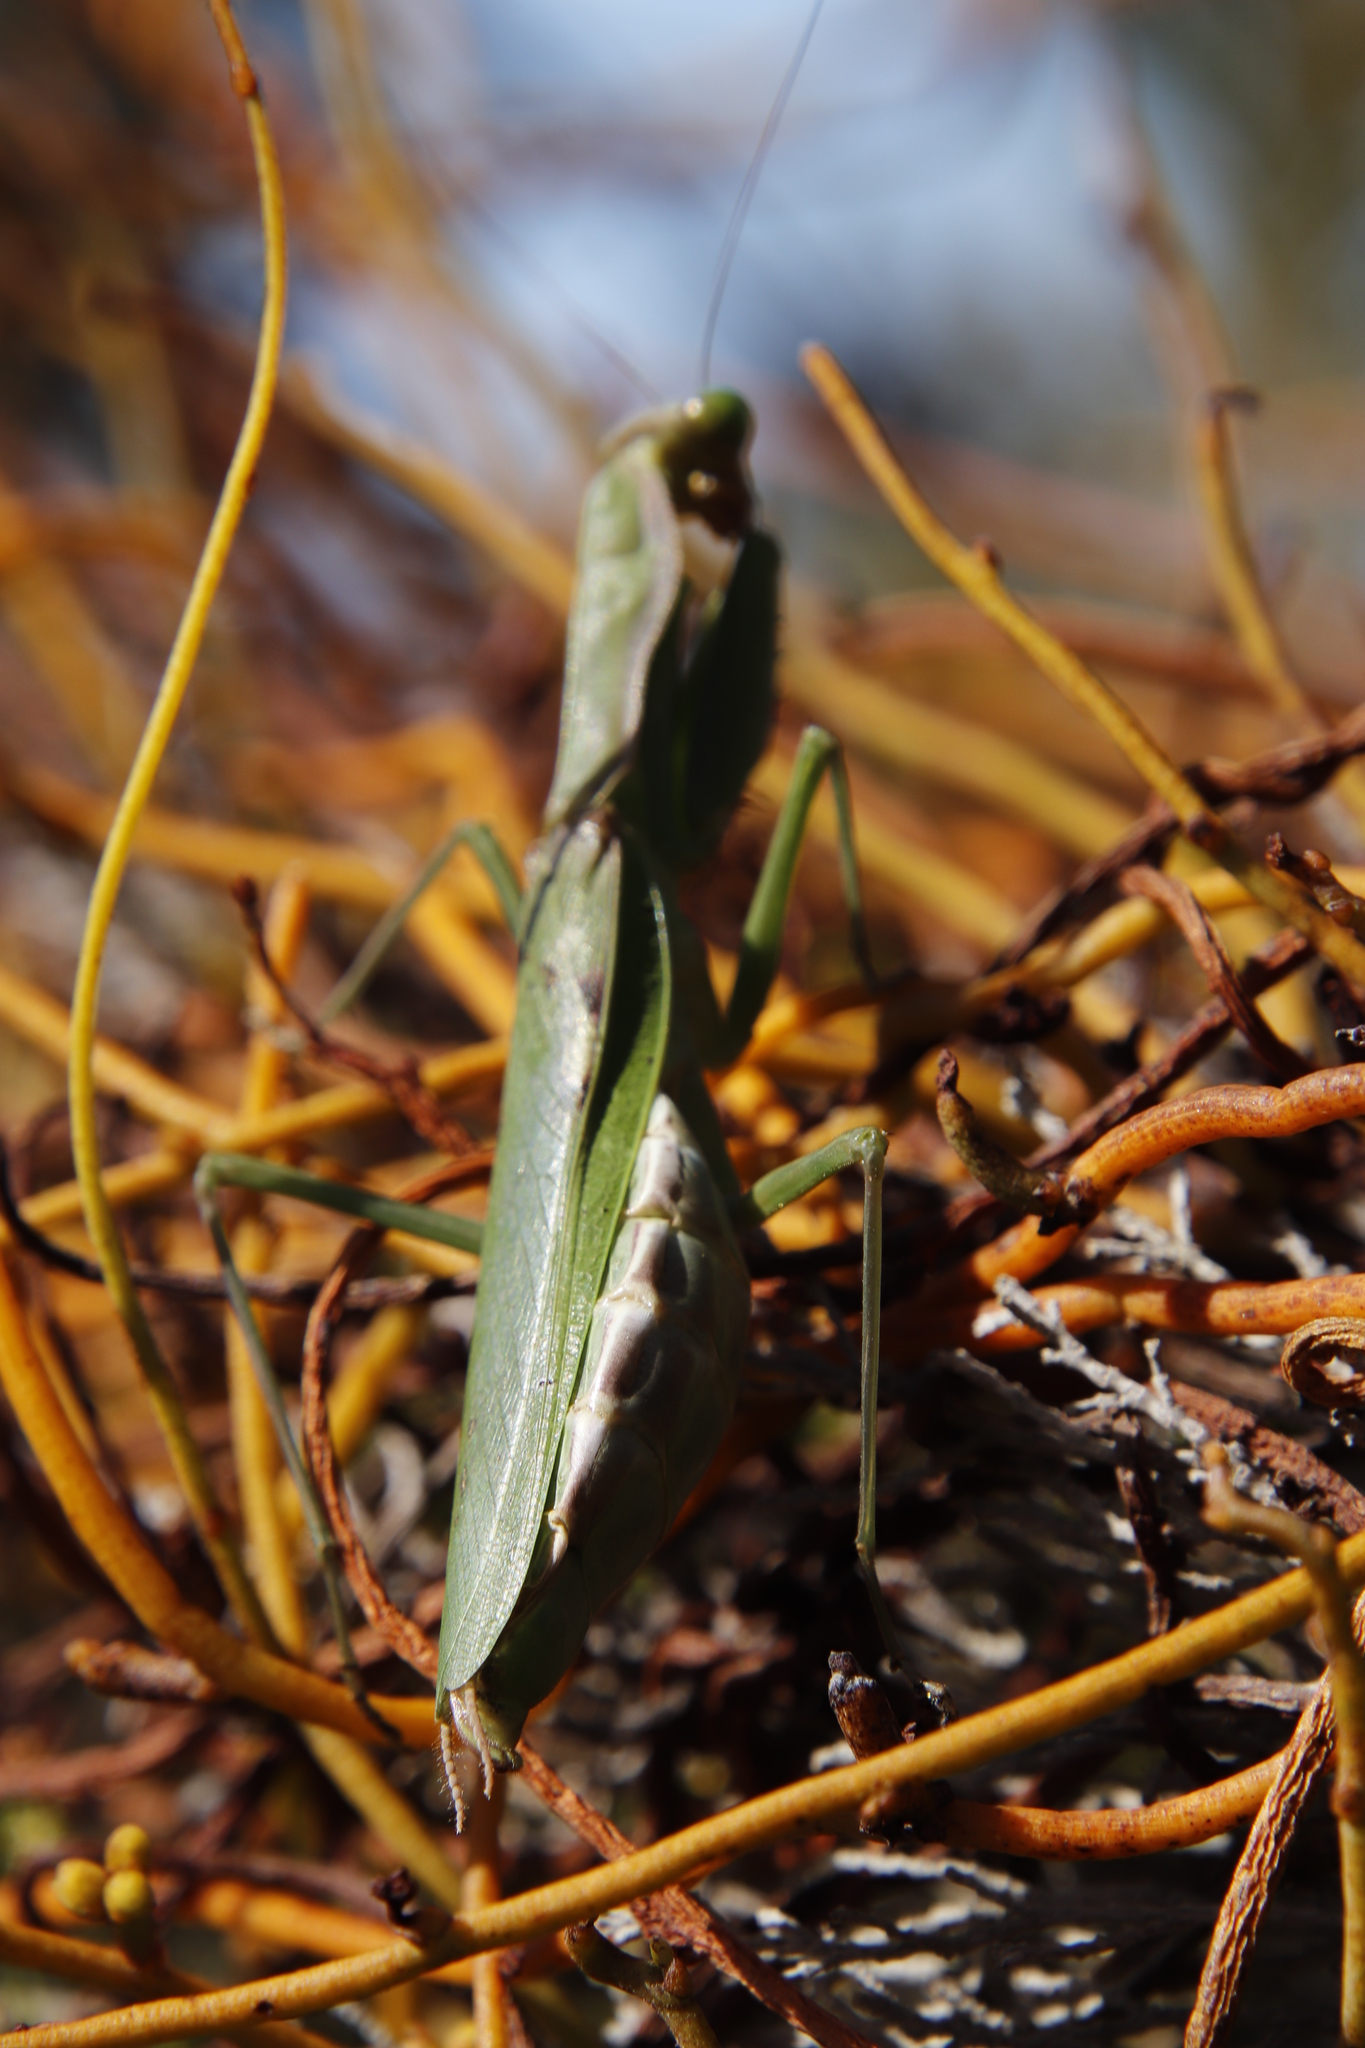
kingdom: Animalia
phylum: Arthropoda
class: Insecta
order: Mantodea
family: Mantidae
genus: Polyspilota
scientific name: Polyspilota aeruginosa
